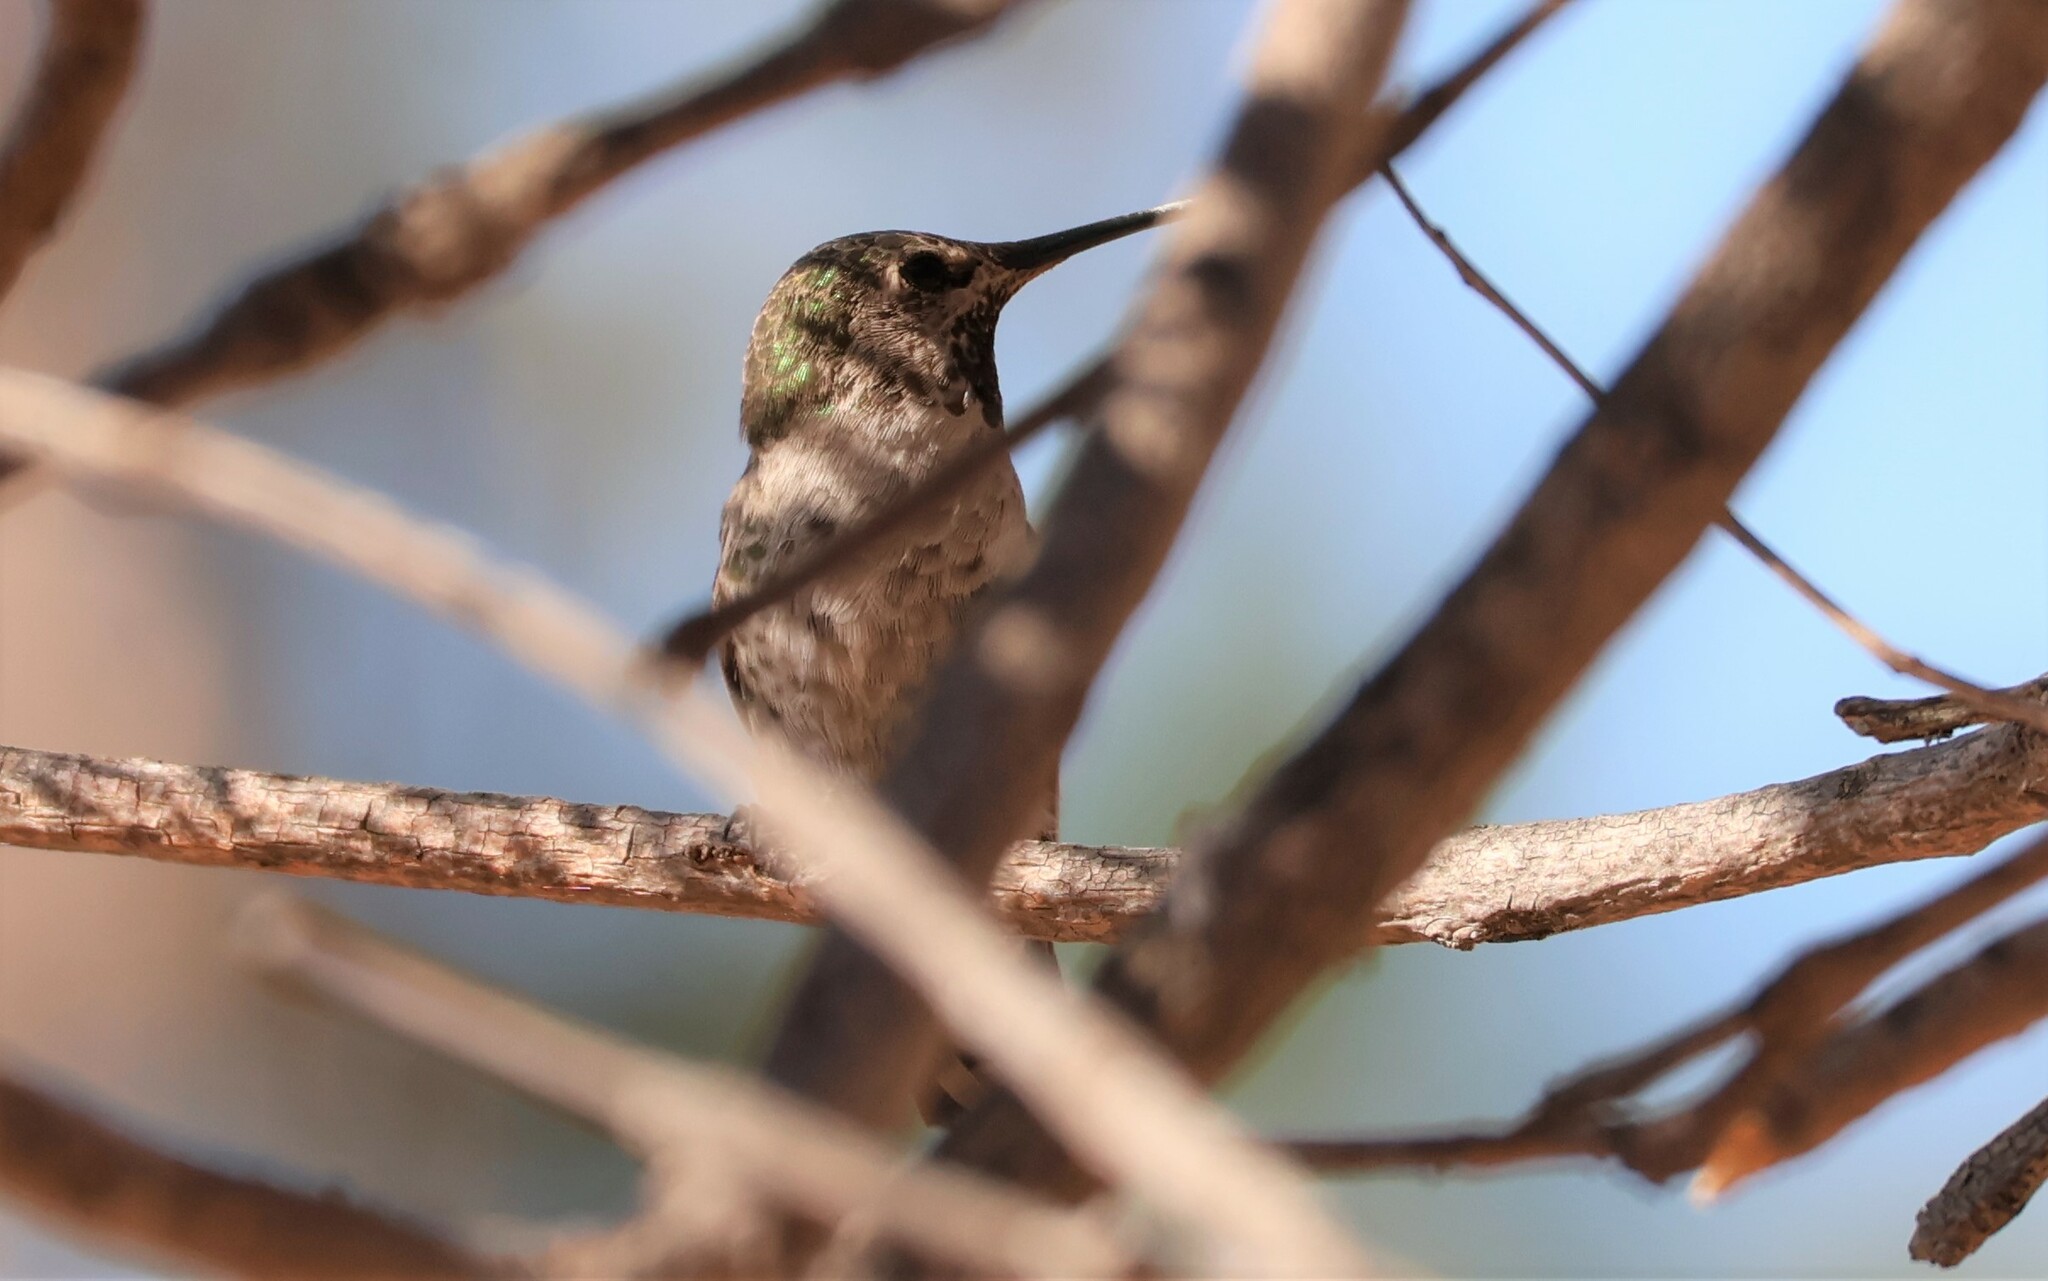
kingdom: Animalia
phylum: Chordata
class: Aves
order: Apodiformes
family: Trochilidae
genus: Calypte
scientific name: Calypte anna
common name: Anna's hummingbird
